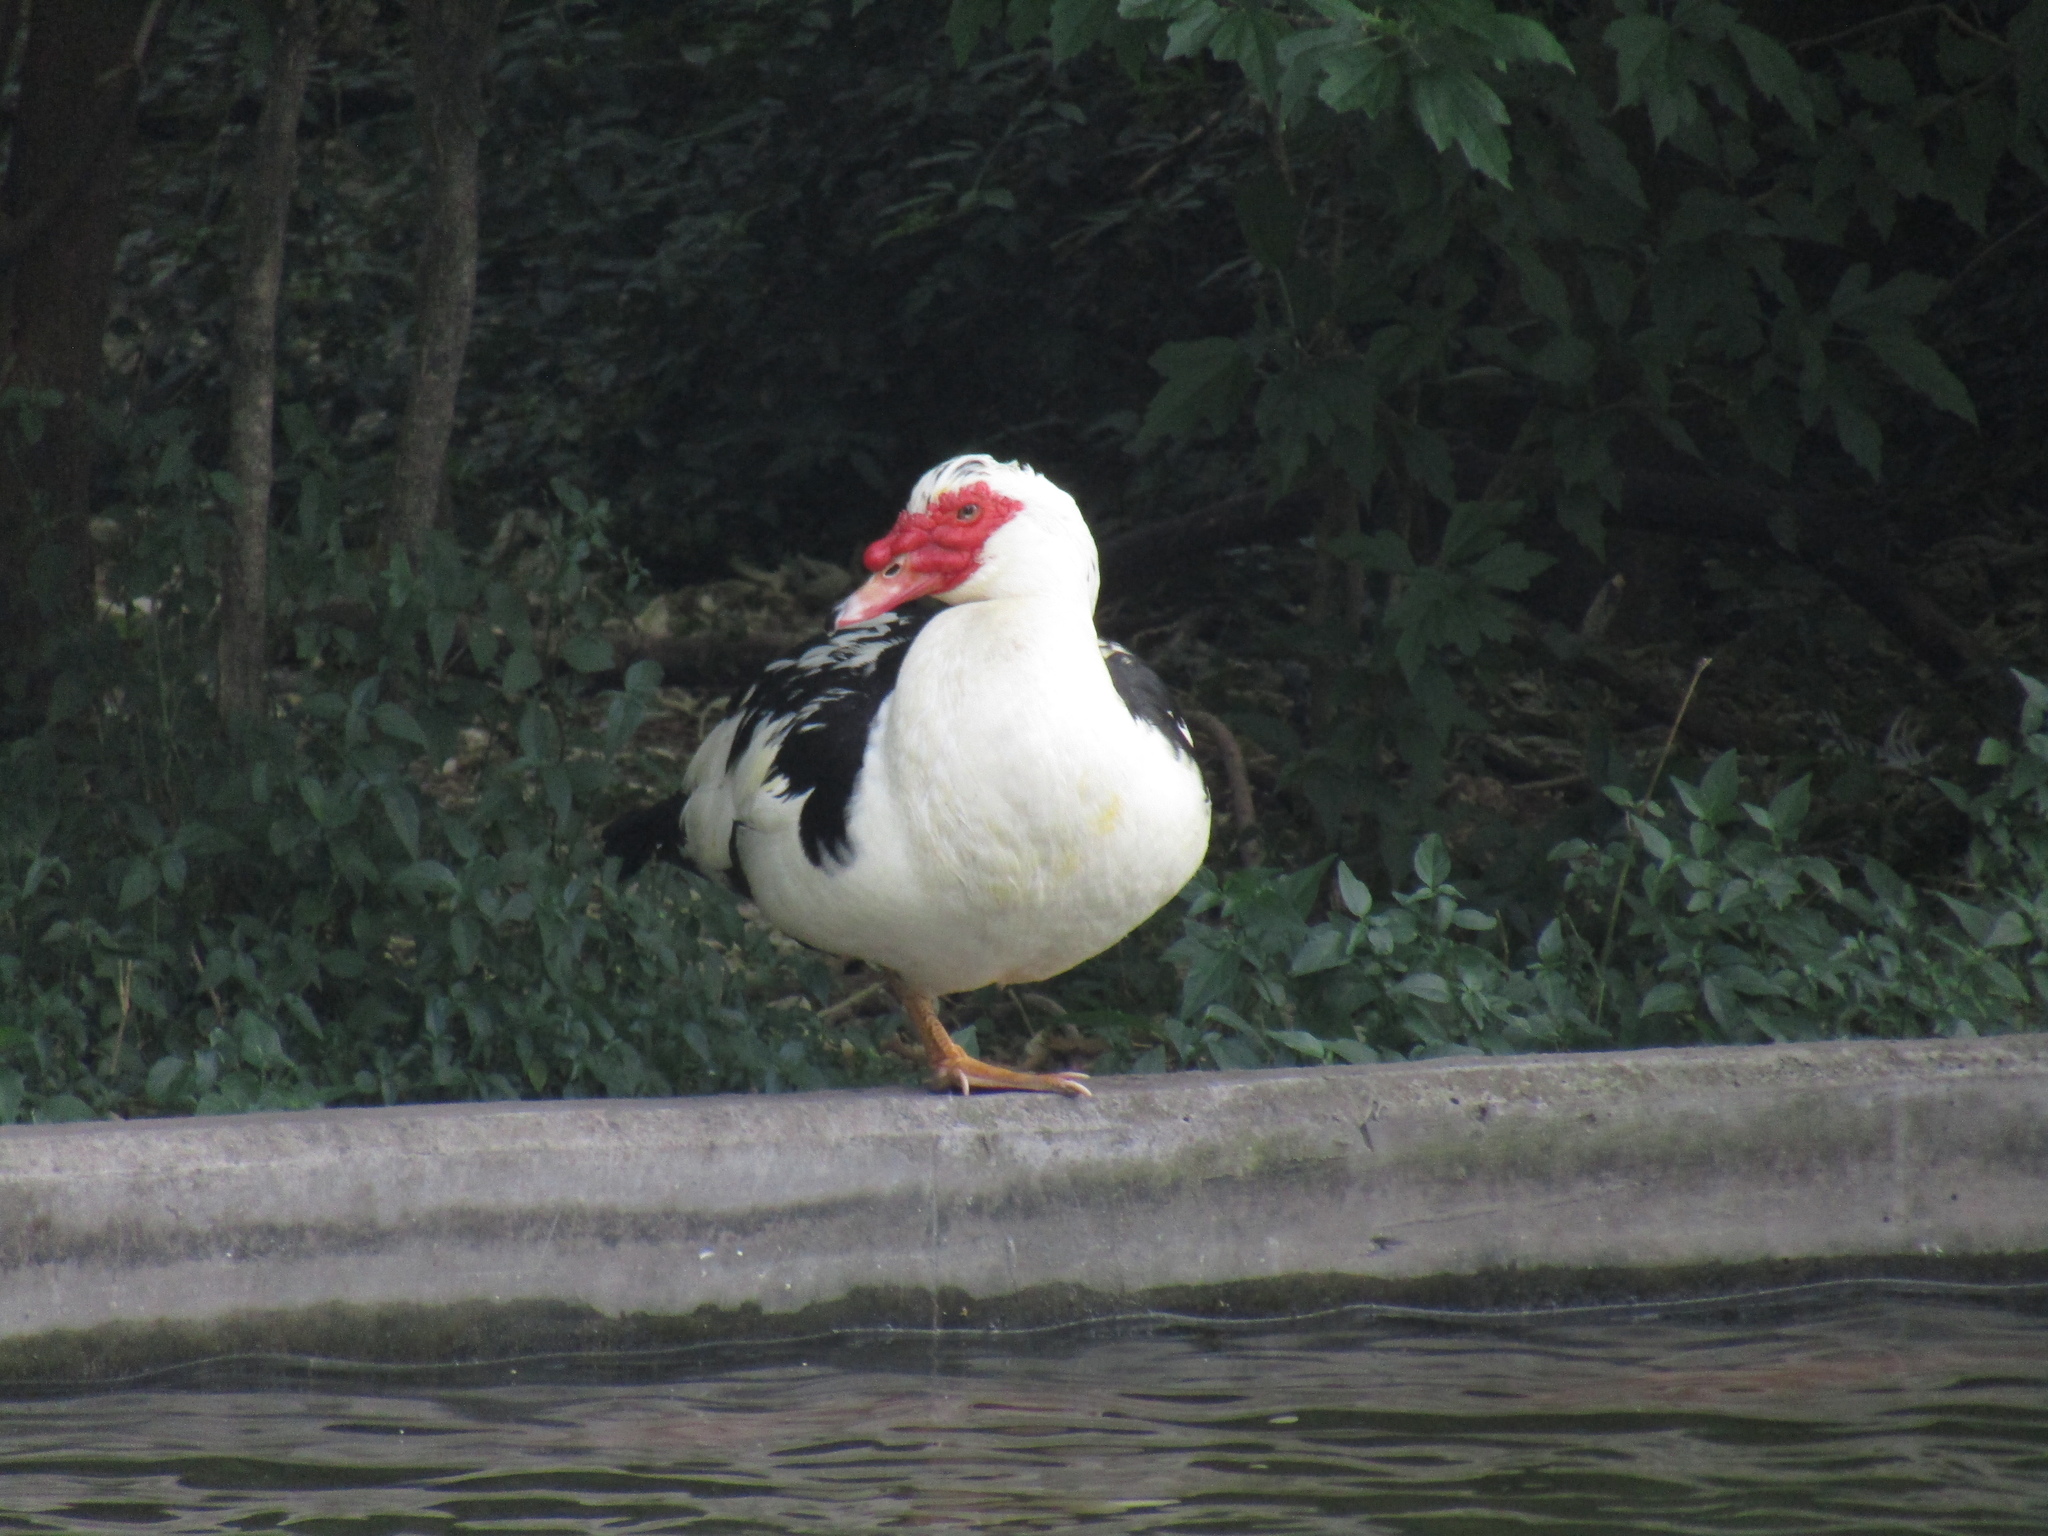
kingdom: Animalia
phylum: Chordata
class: Aves
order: Anseriformes
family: Anatidae
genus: Cairina
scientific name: Cairina moschata
